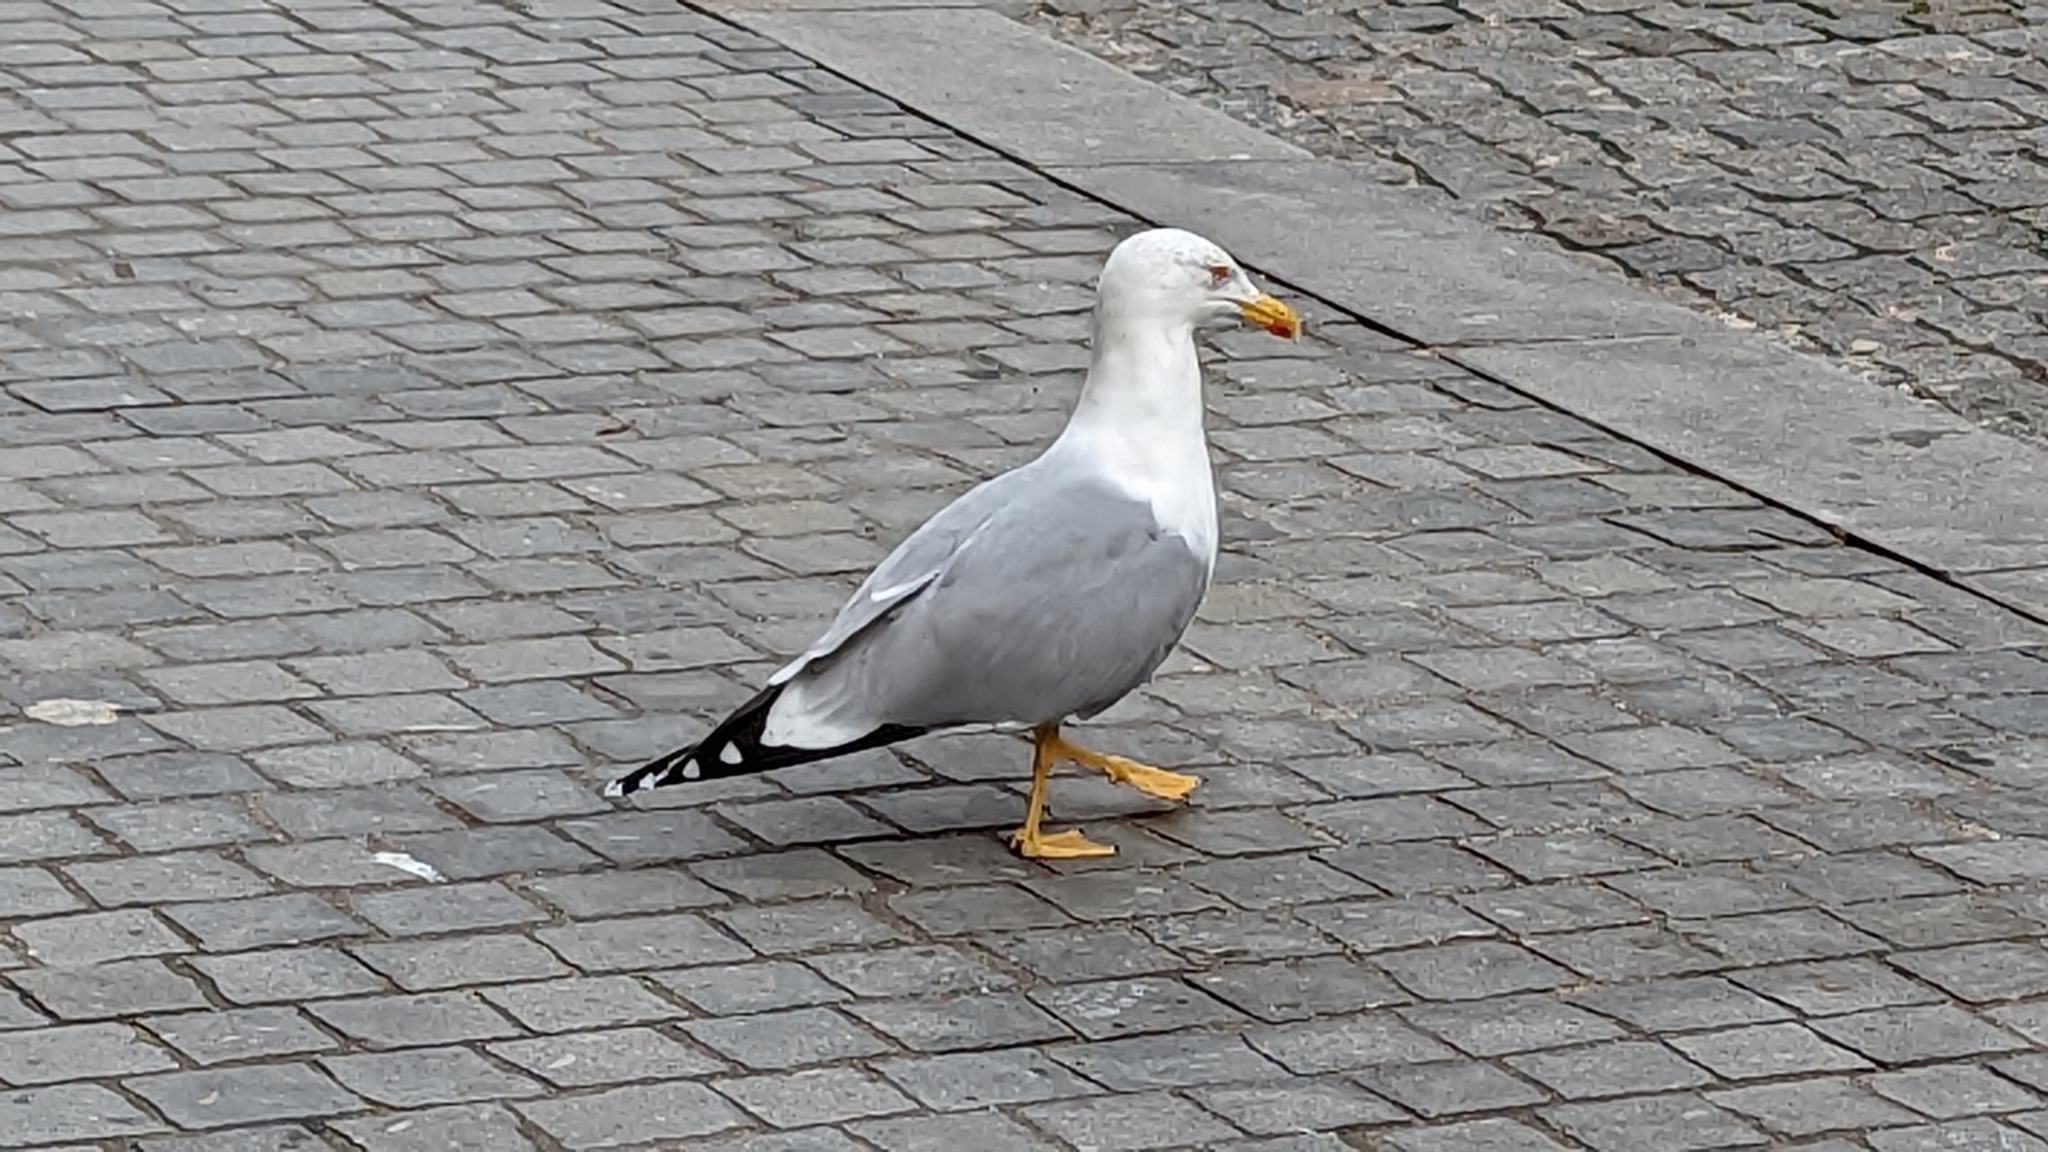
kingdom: Animalia
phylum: Chordata
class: Aves
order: Charadriiformes
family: Laridae
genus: Larus
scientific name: Larus michahellis
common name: Yellow-legged gull
